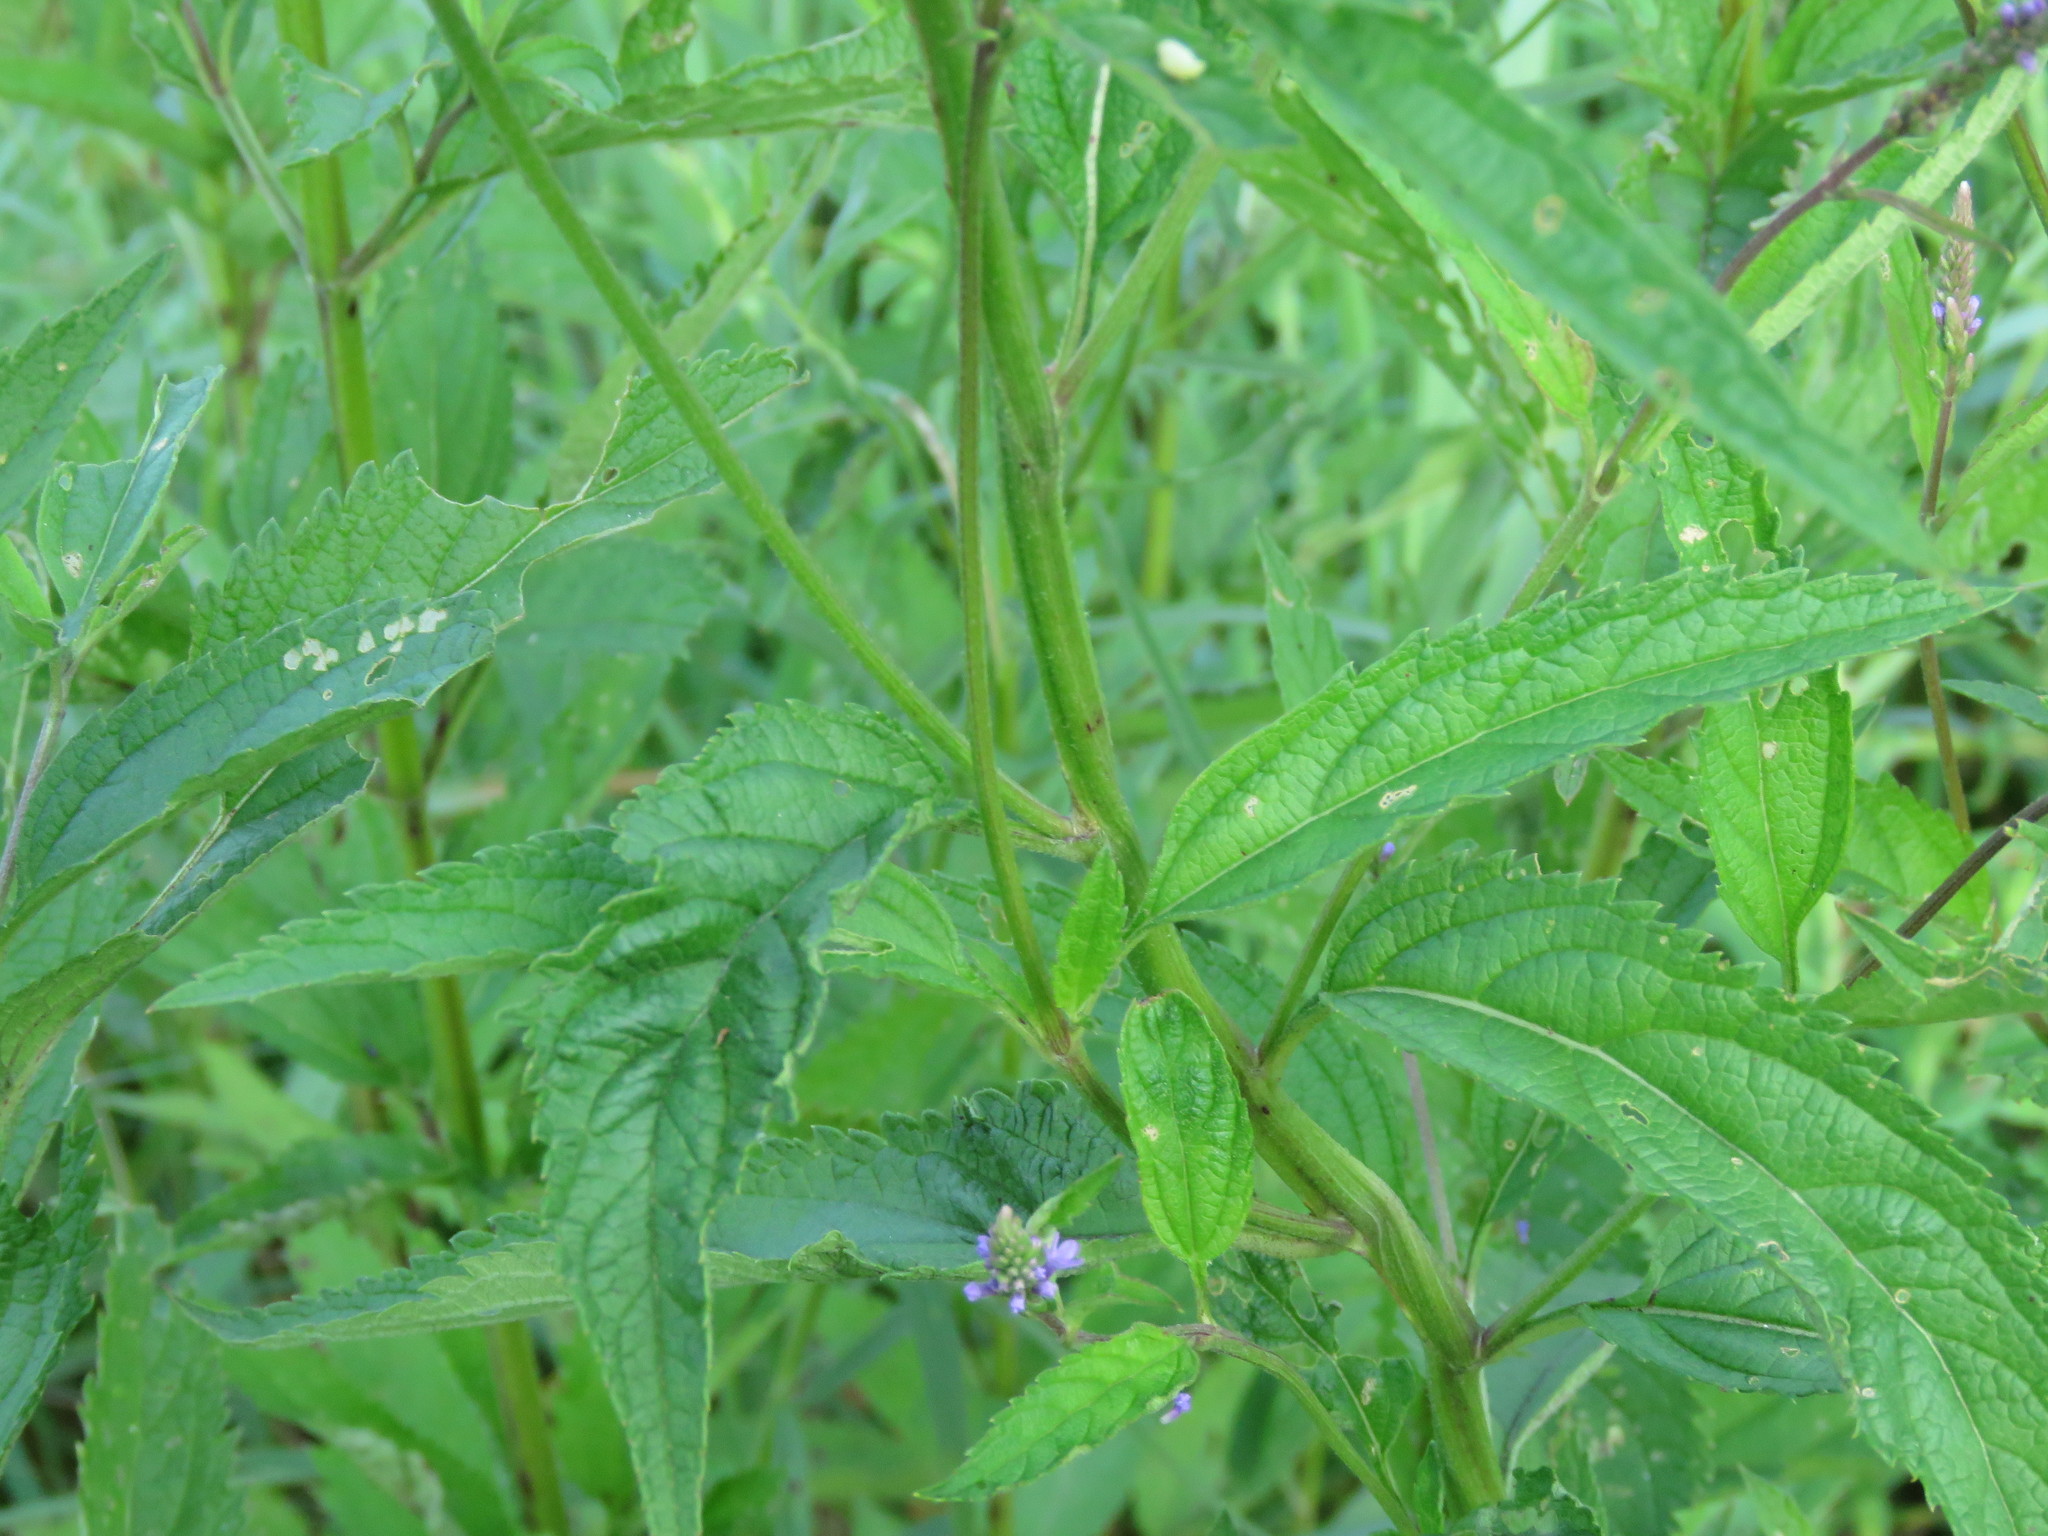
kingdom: Plantae
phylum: Tracheophyta
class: Magnoliopsida
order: Lamiales
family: Verbenaceae
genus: Verbena
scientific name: Verbena hastata
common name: American blue vervain
